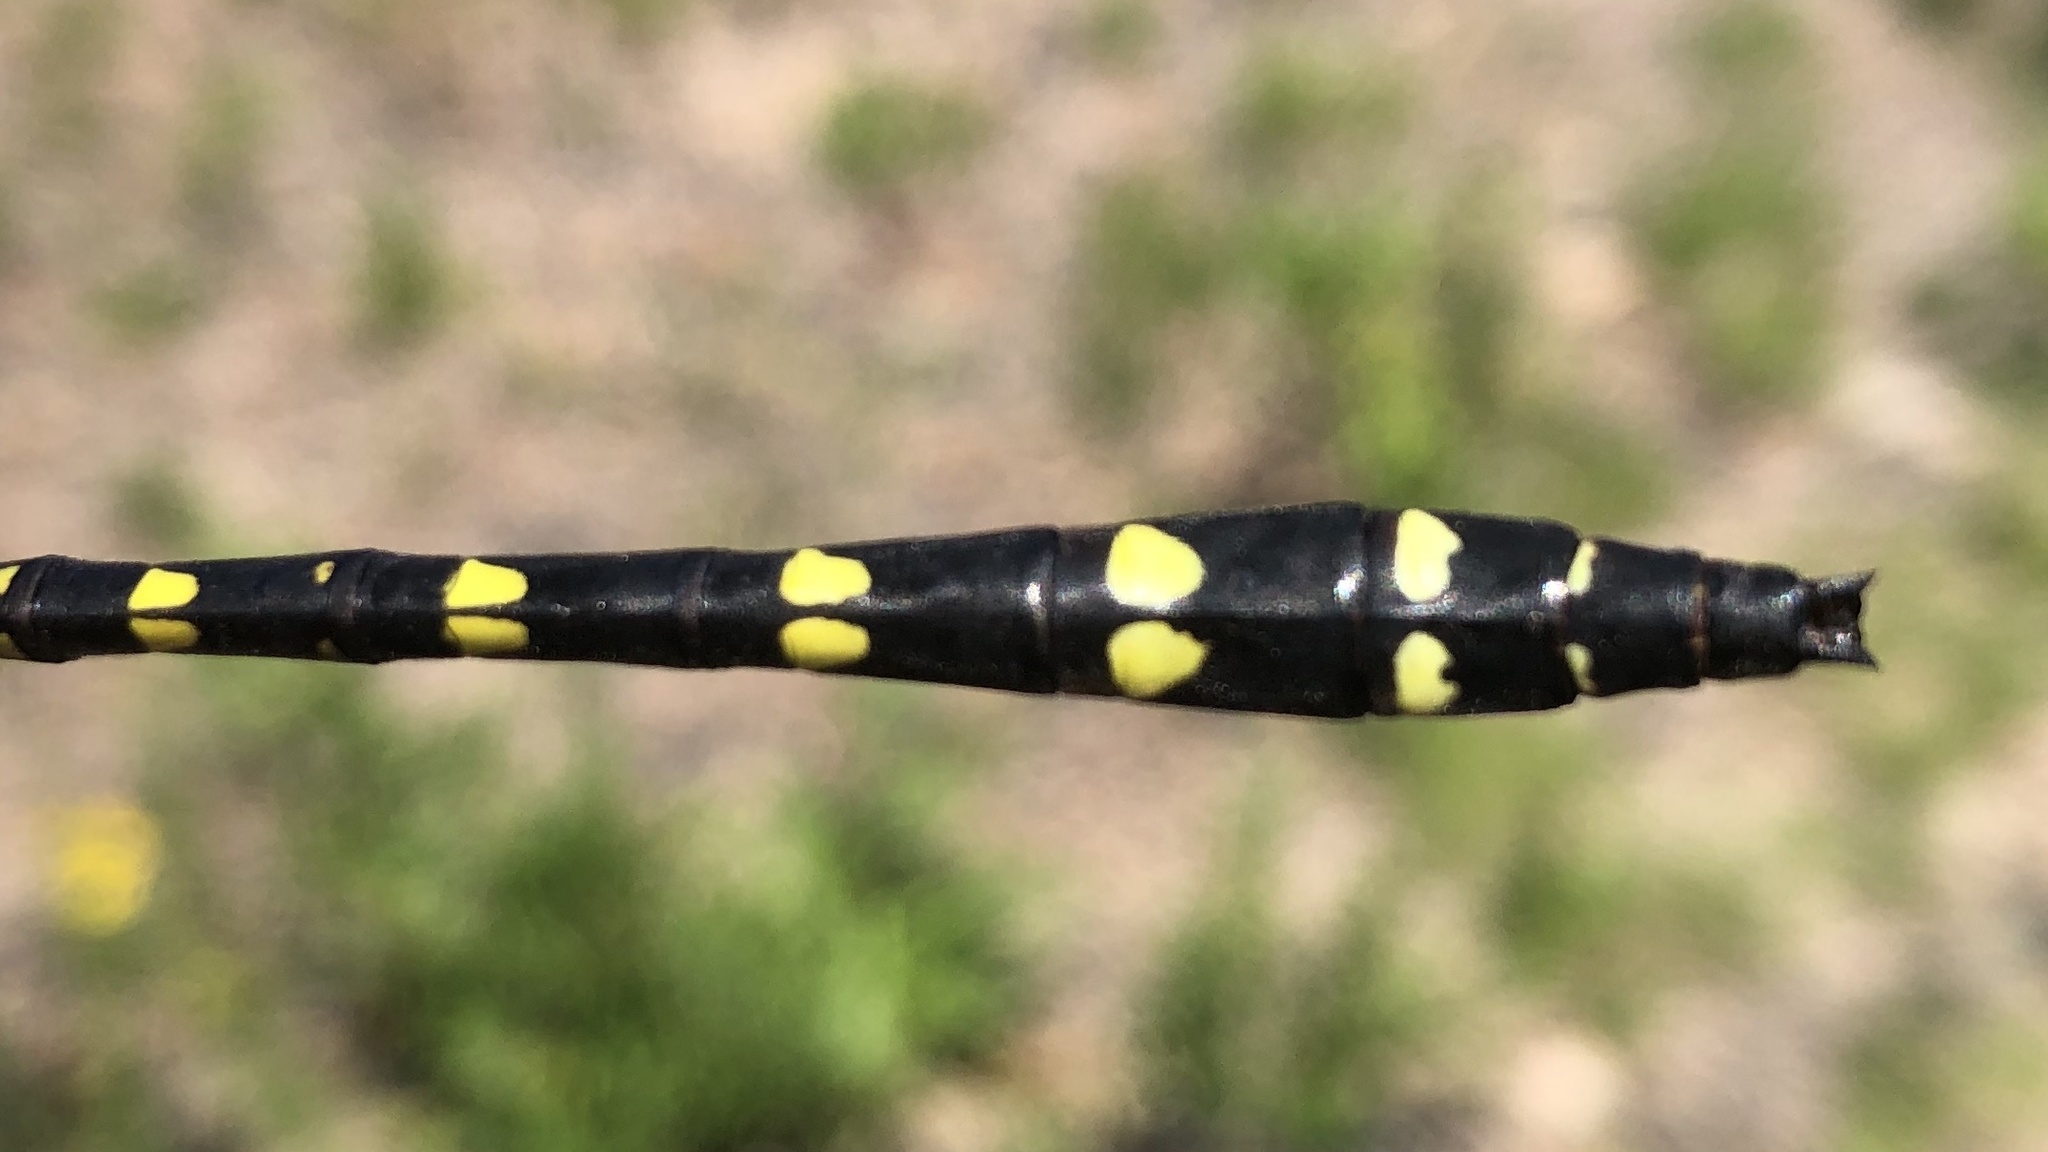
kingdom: Animalia
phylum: Arthropoda
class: Insecta
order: Odonata
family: Cordulegastridae
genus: Cordulegaster
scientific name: Cordulegaster maculata
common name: Twin-spotted spiketail
